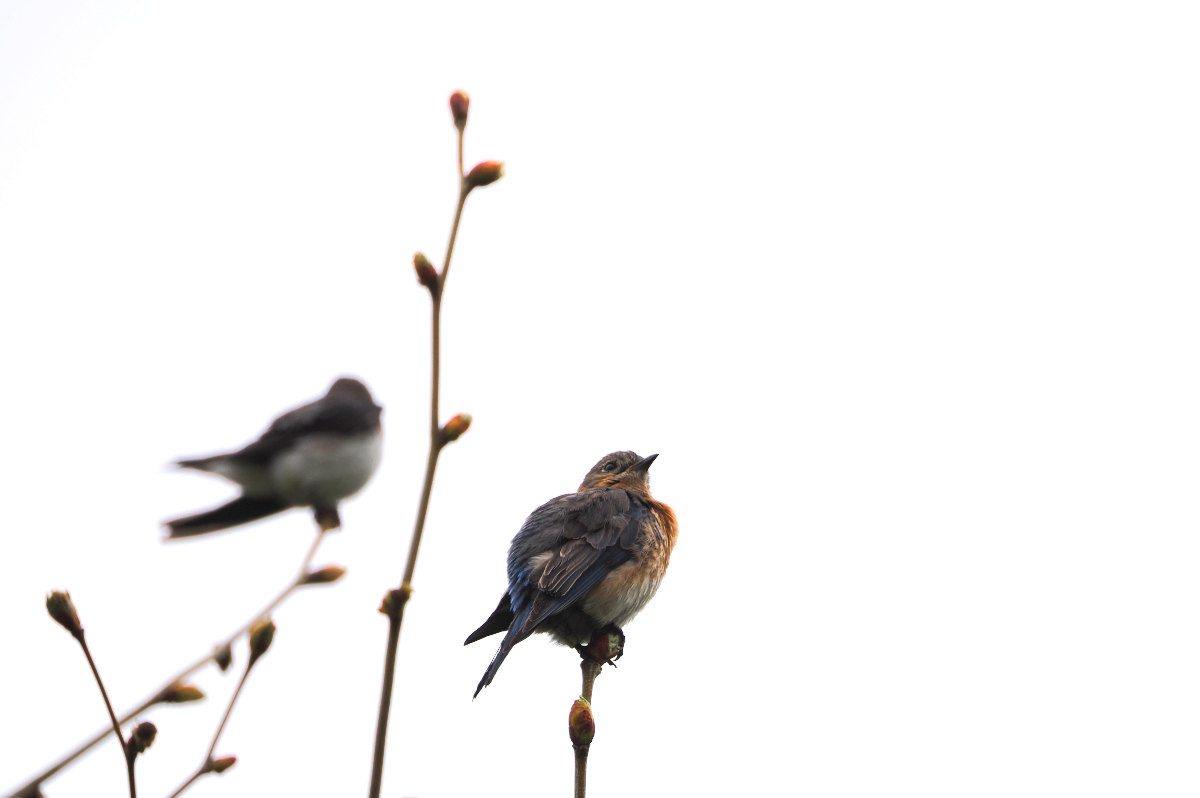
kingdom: Animalia
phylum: Chordata
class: Aves
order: Passeriformes
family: Turdidae
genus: Sialia
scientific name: Sialia sialis
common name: Eastern bluebird
